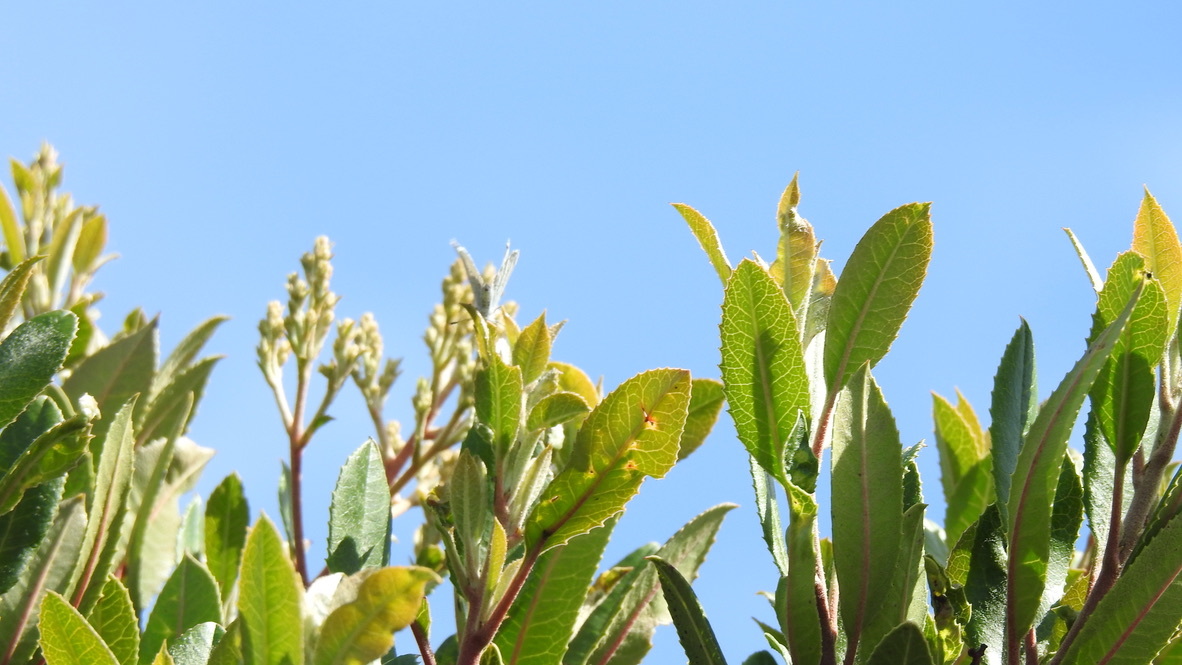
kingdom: Plantae
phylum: Tracheophyta
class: Magnoliopsida
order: Rosales
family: Rosaceae
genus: Heteromeles
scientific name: Heteromeles arbutifolia
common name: California-holly
